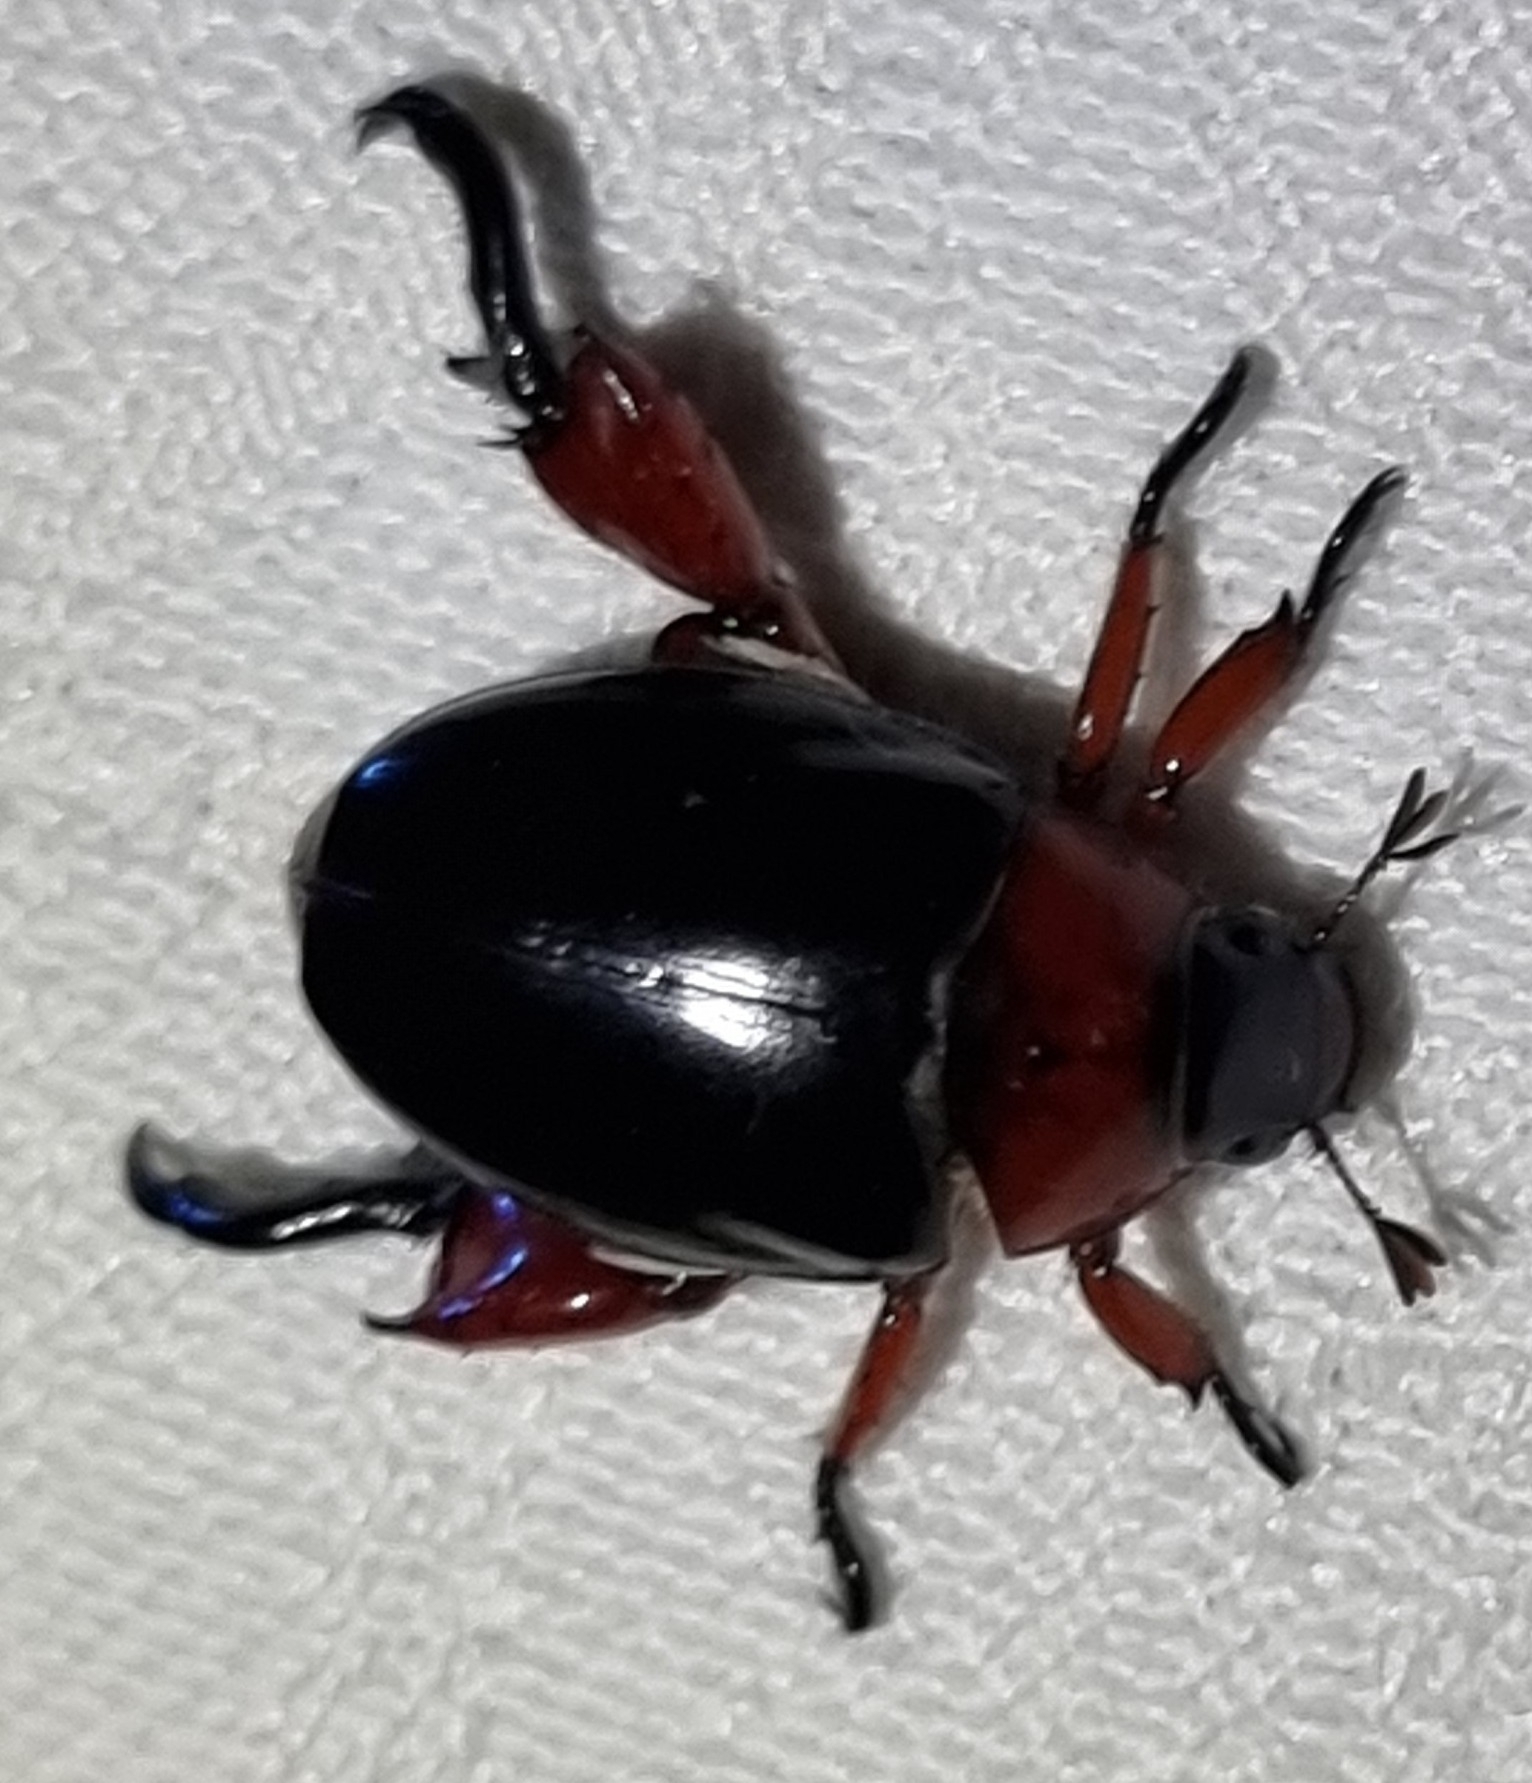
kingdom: Animalia
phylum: Arthropoda
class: Insecta
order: Coleoptera
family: Scarabaeidae
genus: Repsimus
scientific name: Repsimus manicatus
